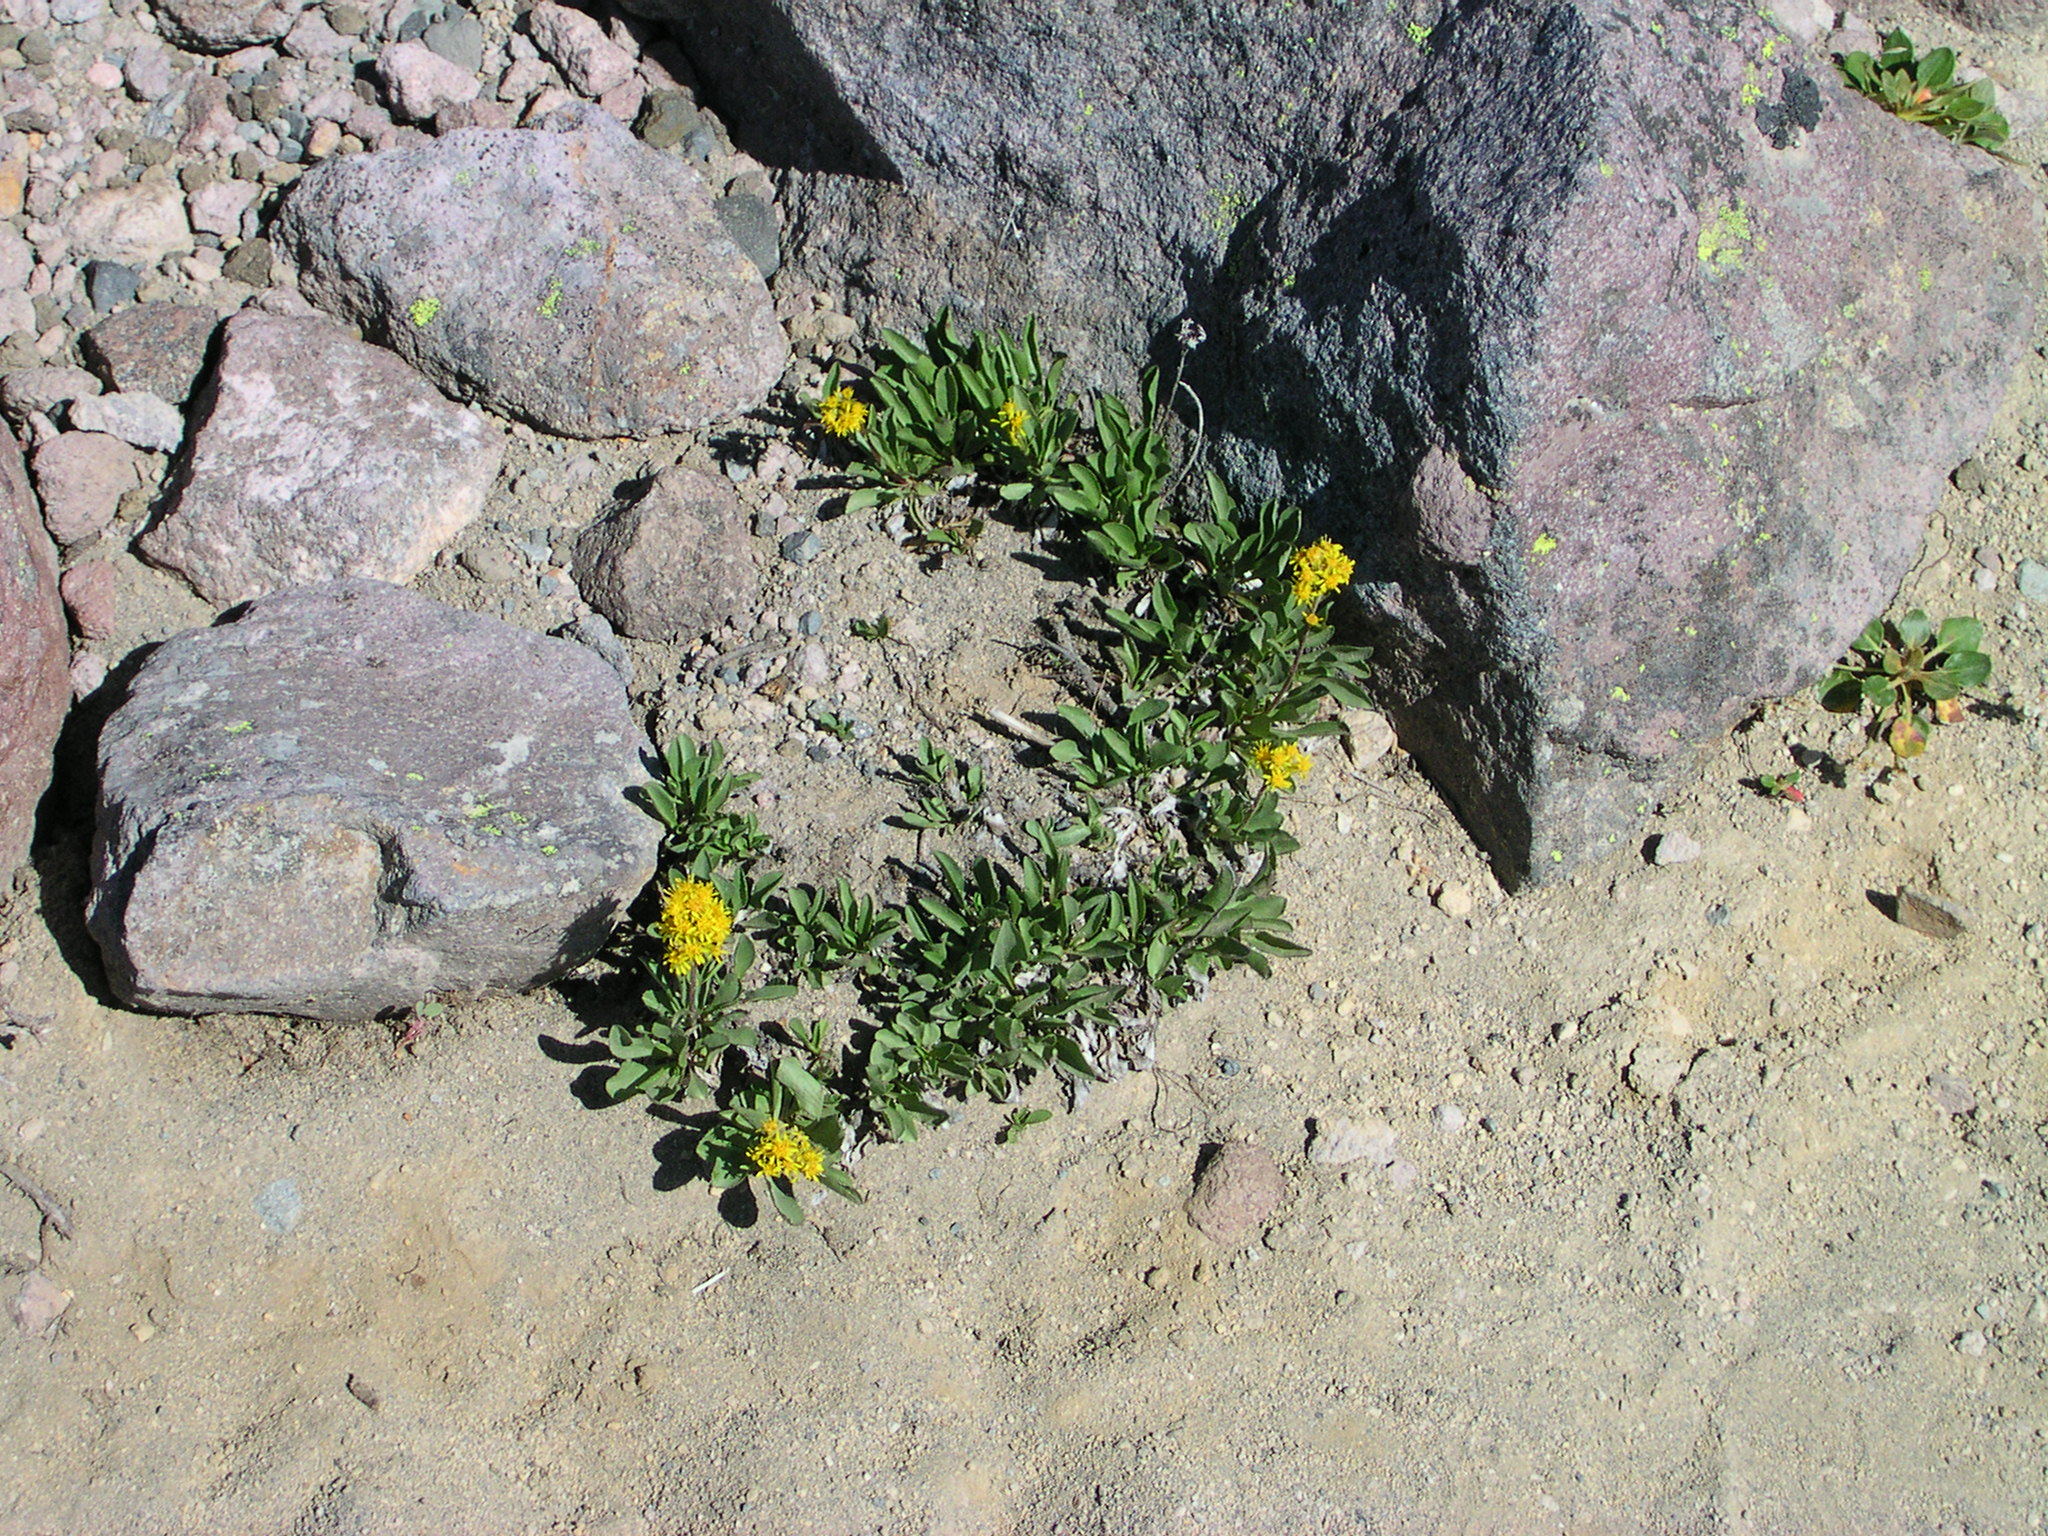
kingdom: Plantae
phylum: Tracheophyta
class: Magnoliopsida
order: Asterales
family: Asteraceae
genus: Solidago
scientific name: Solidago multiradiata
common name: Northern goldenrod
